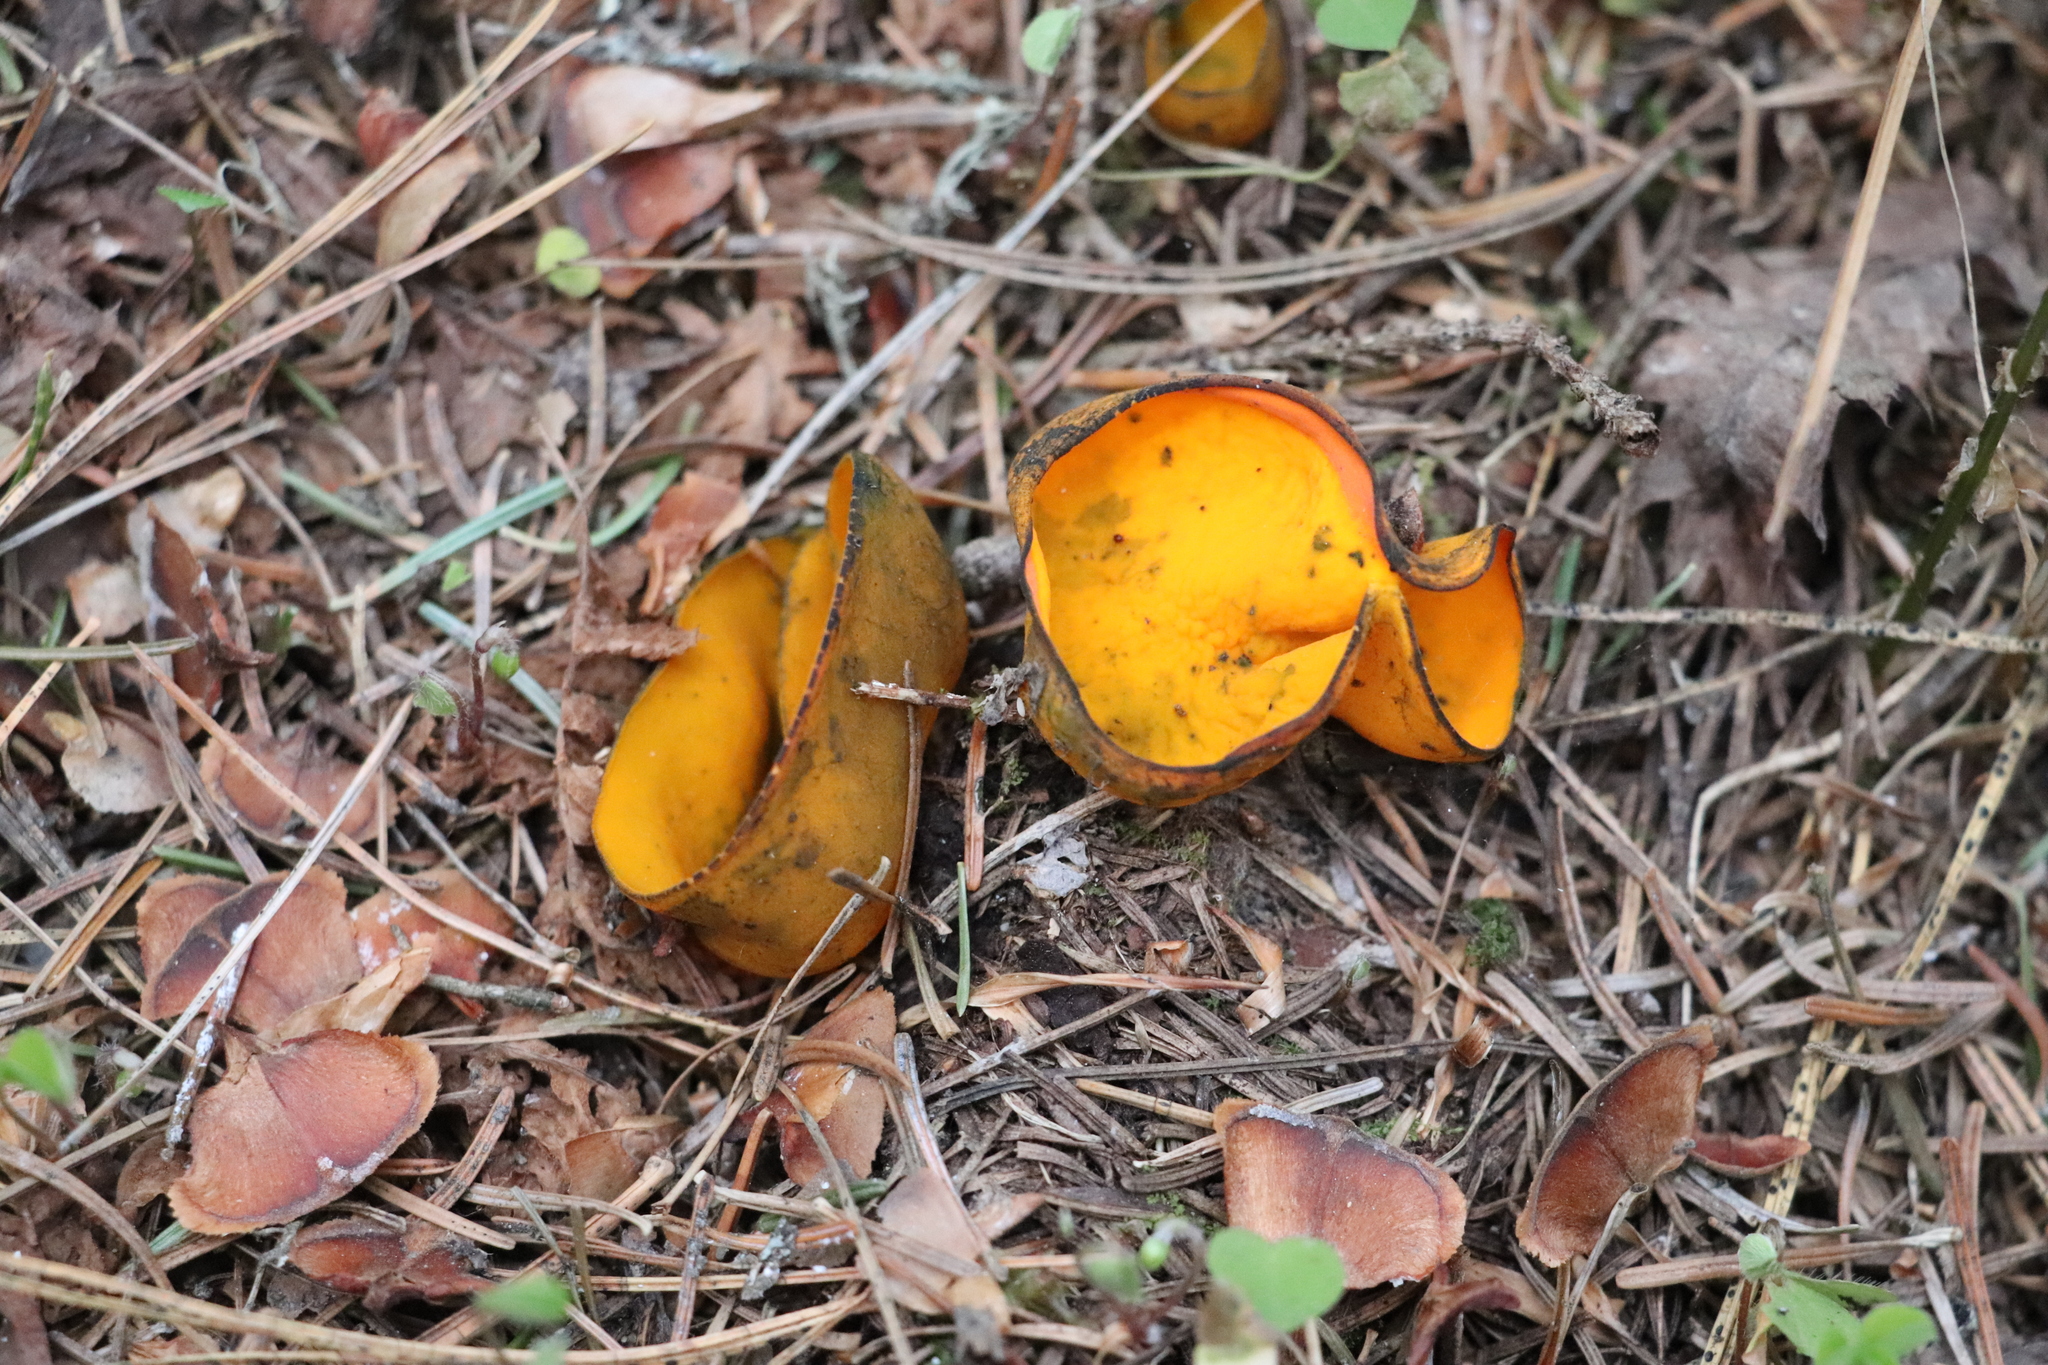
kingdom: Fungi
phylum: Ascomycota
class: Pezizomycetes
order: Pezizales
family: Caloscyphaceae
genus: Caloscypha
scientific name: Caloscypha fulgens
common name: Golden cup
